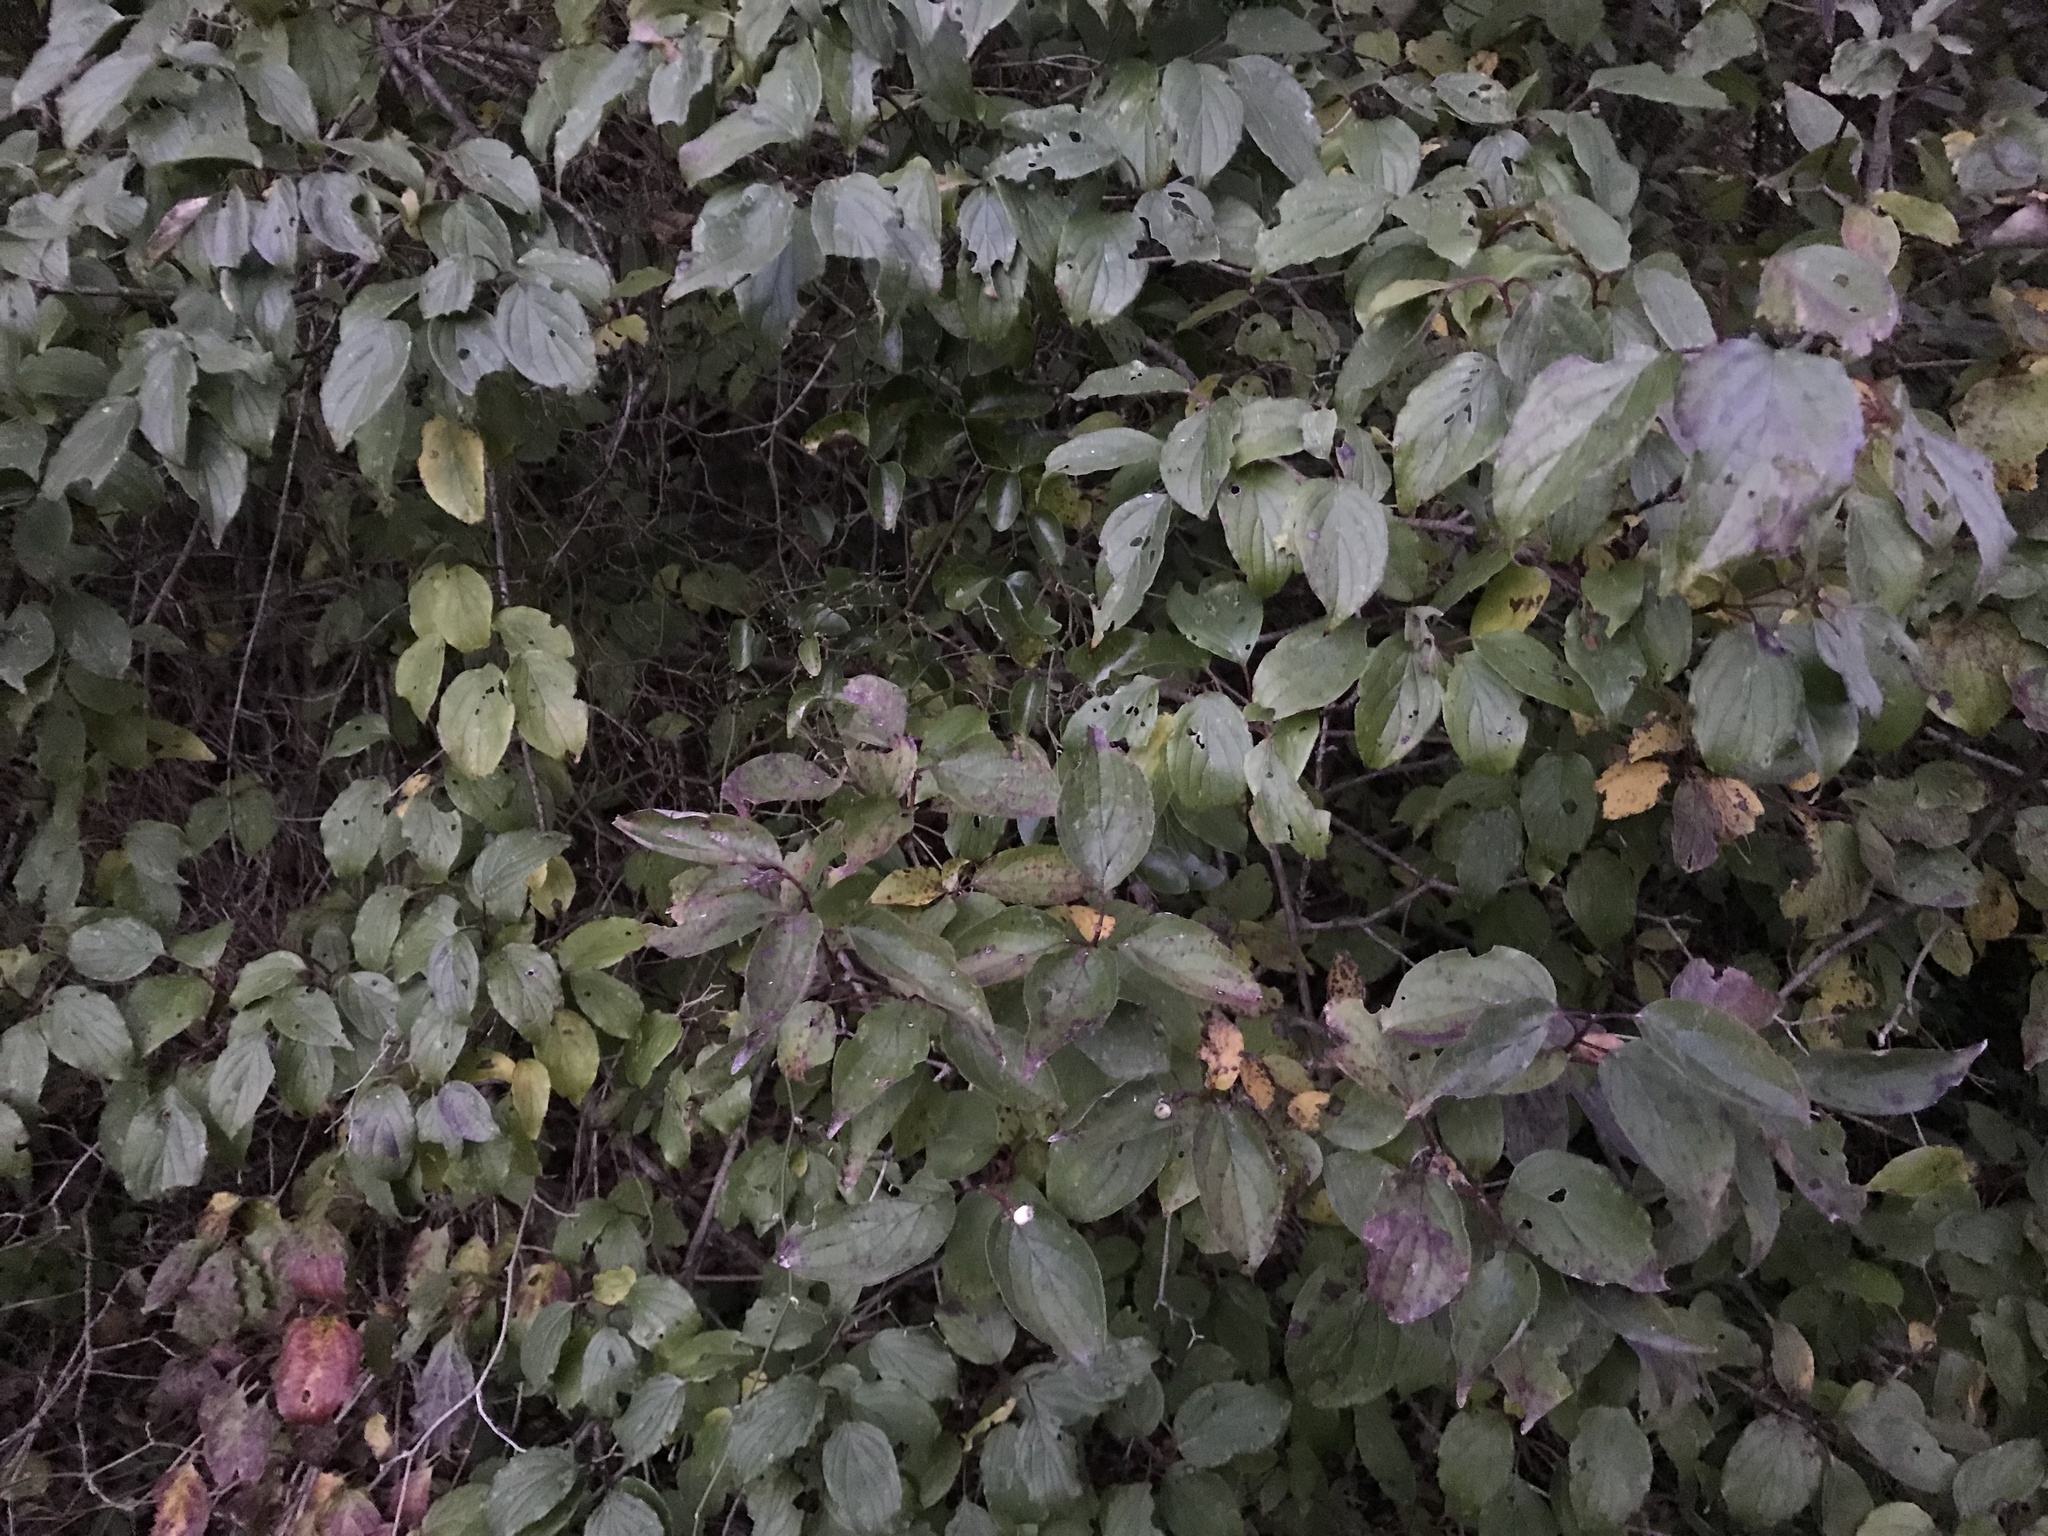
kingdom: Plantae
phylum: Tracheophyta
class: Magnoliopsida
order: Cornales
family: Cornaceae
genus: Cornus
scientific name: Cornus drummondii
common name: Rough-leaf dogwood
